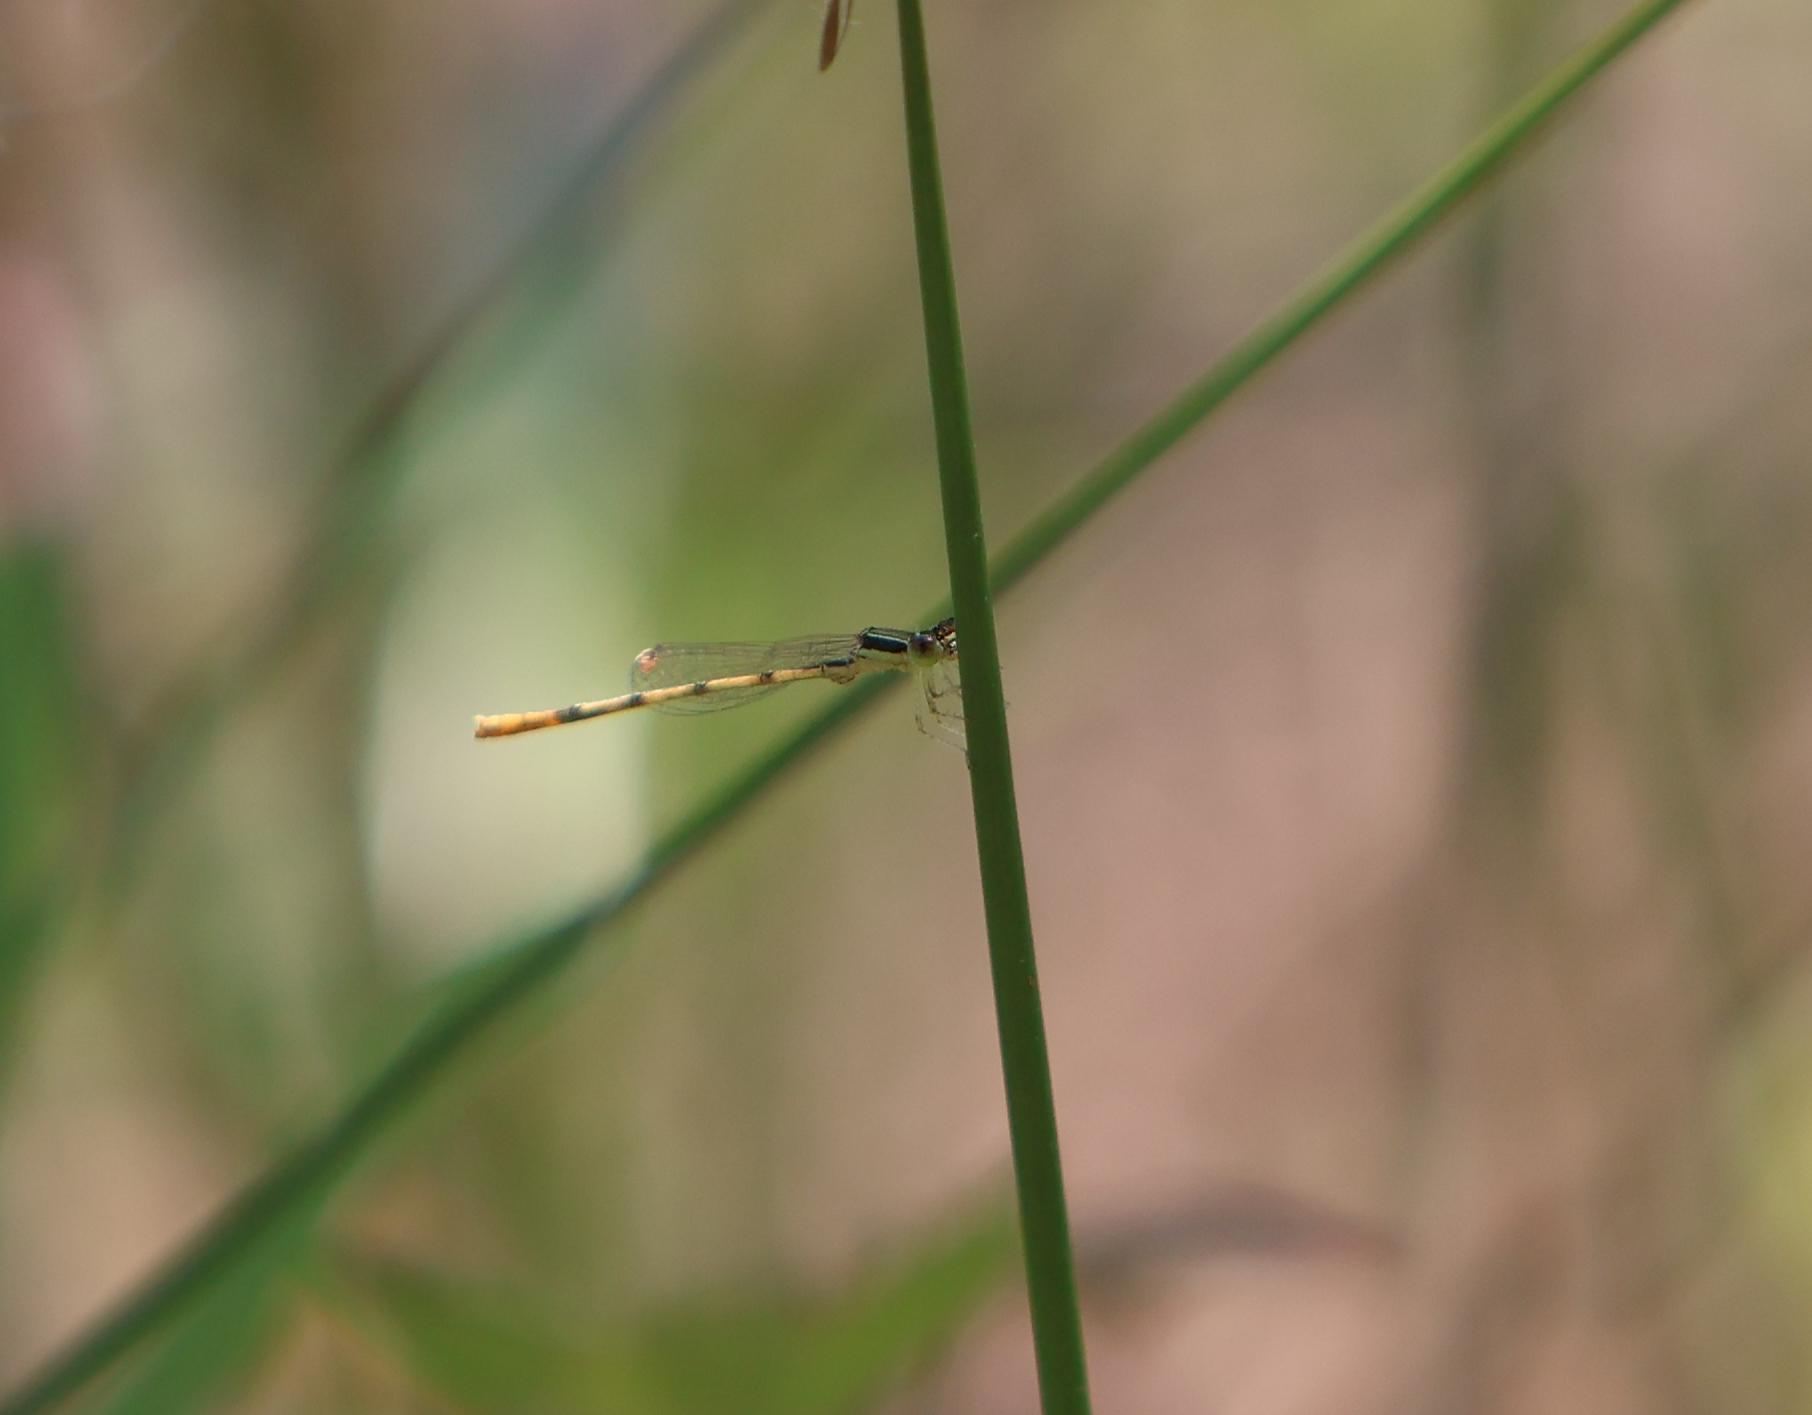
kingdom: Animalia
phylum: Arthropoda
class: Insecta
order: Odonata
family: Coenagrionidae
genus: Ischnura
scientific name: Ischnura hastata
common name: Citrine forktail
